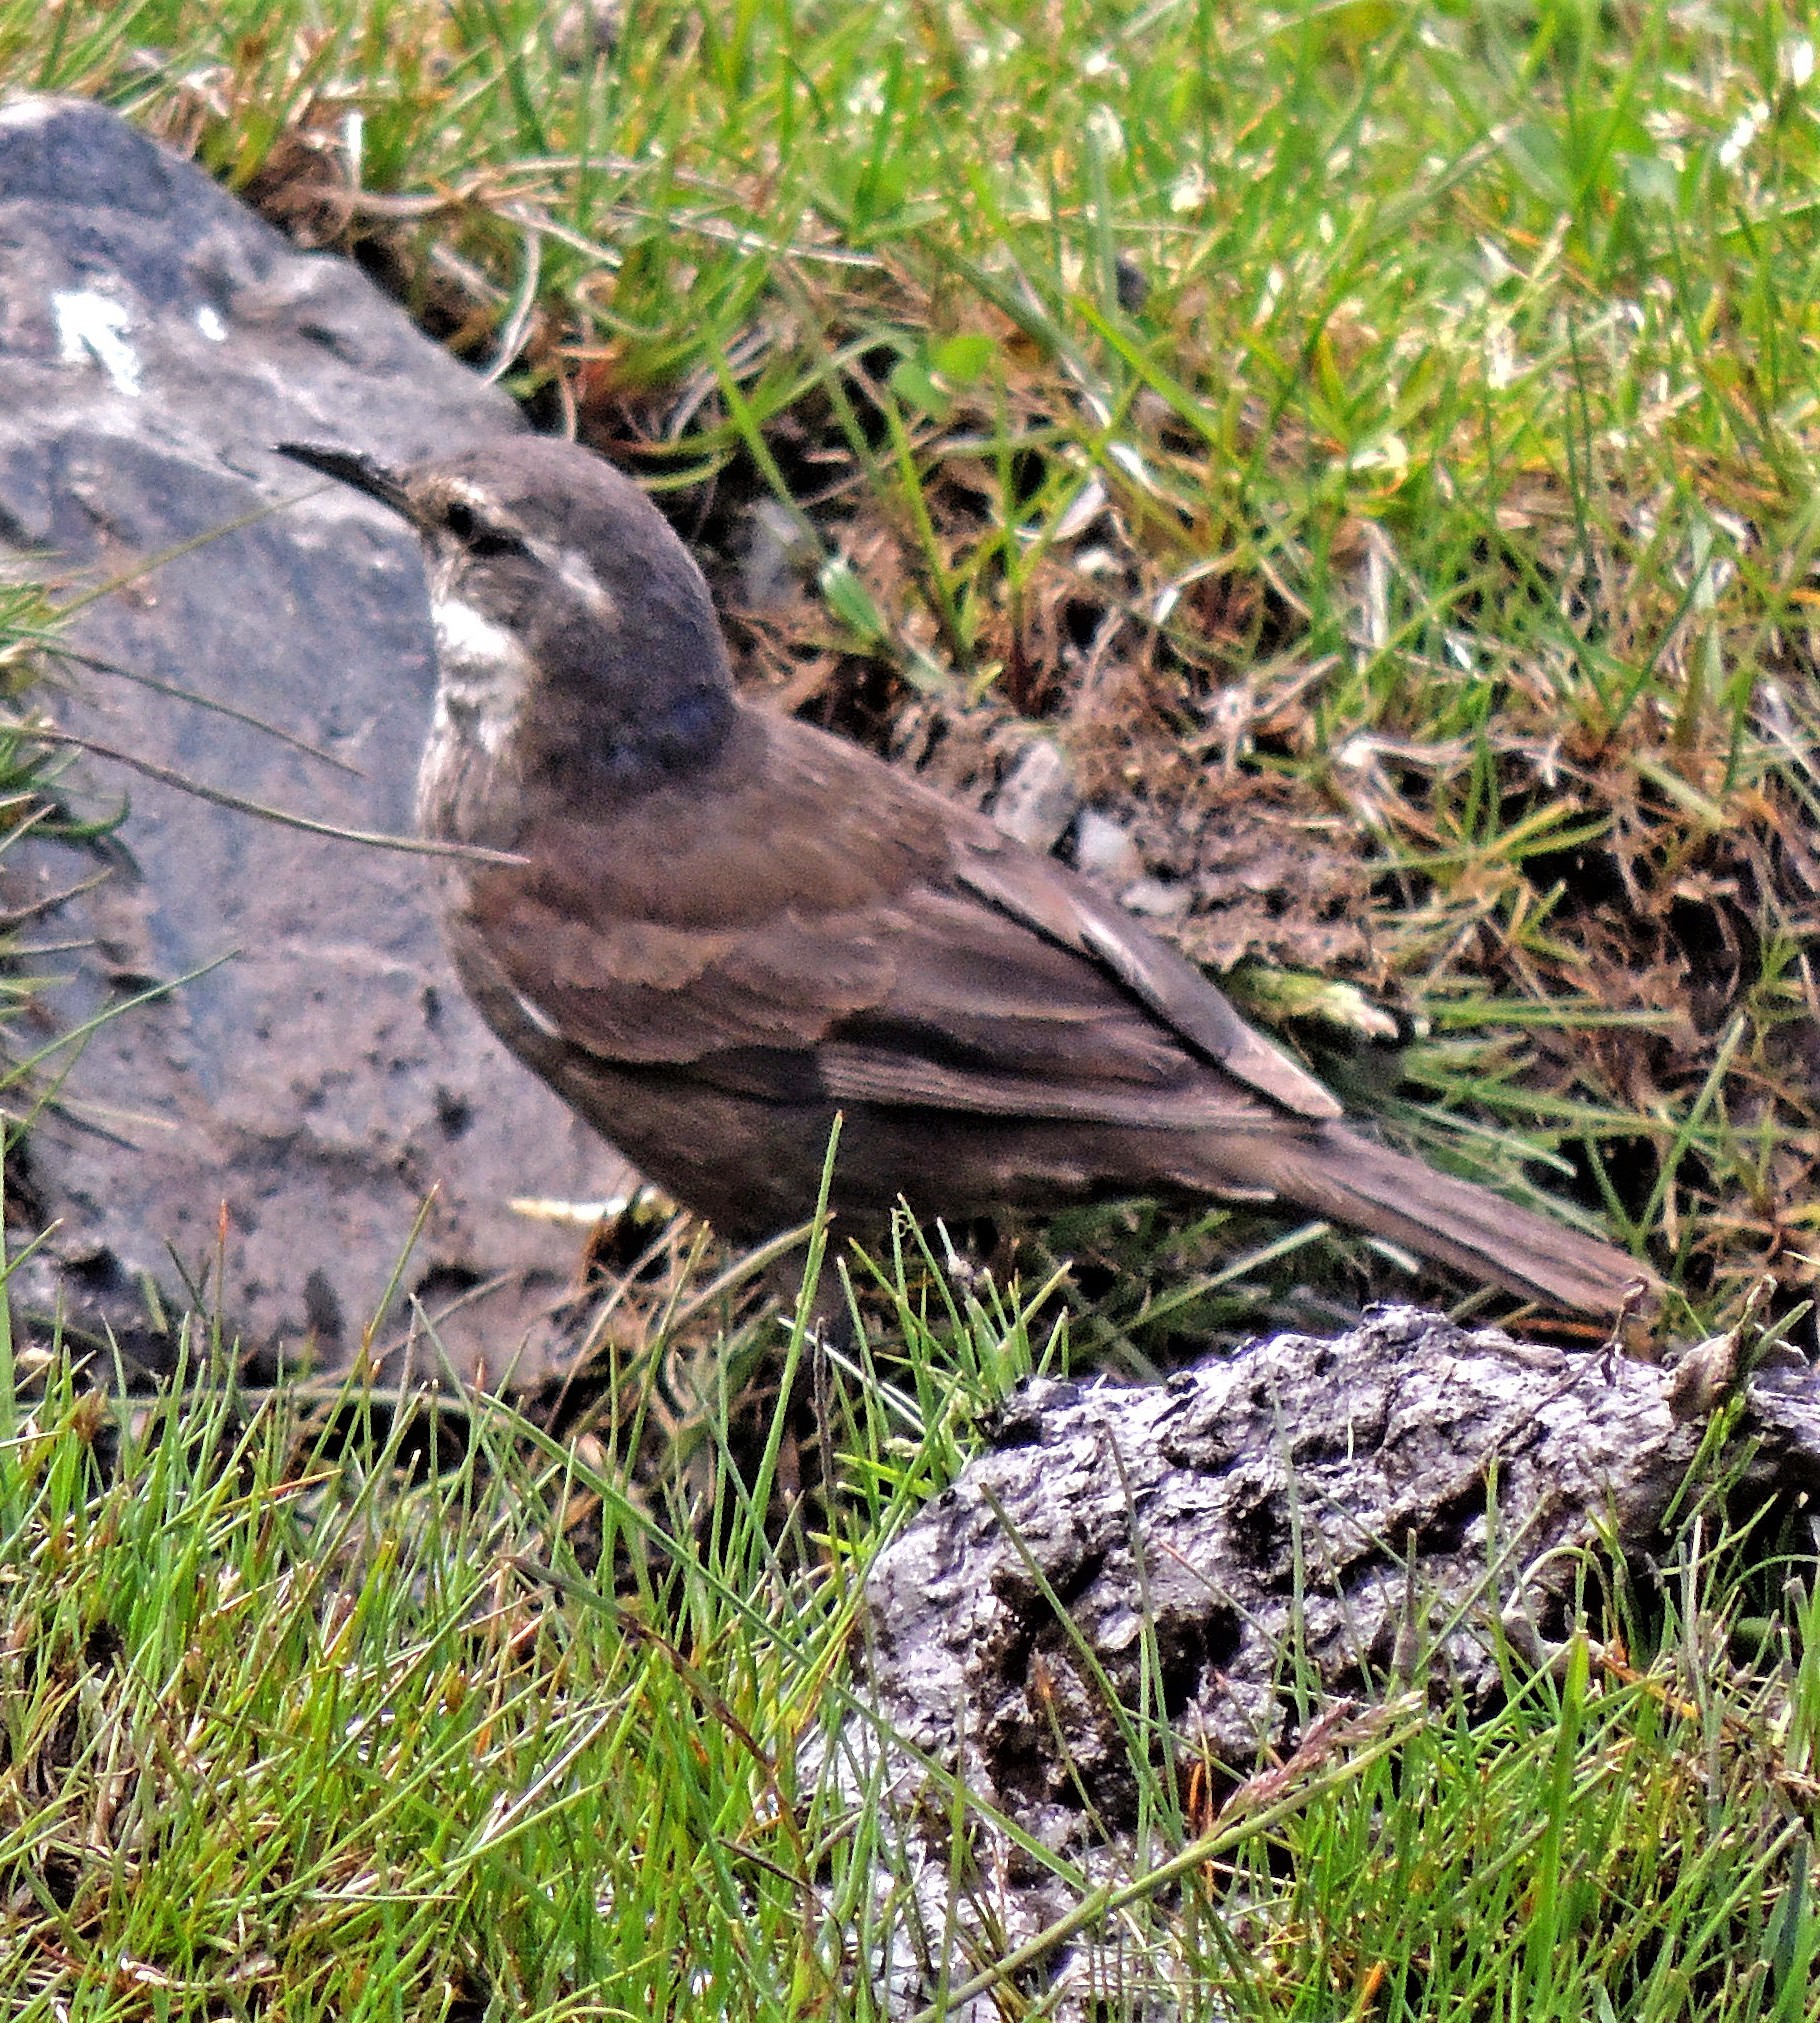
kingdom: Animalia
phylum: Chordata
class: Aves
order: Passeriformes
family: Furnariidae
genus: Cinclodes
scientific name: Cinclodes patagonicus
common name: Dark-bellied cinclodes
